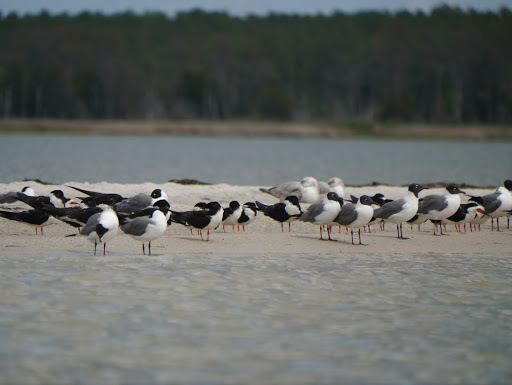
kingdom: Animalia
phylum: Chordata
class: Aves
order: Charadriiformes
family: Laridae
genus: Rynchops
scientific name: Rynchops niger
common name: Black skimmer
